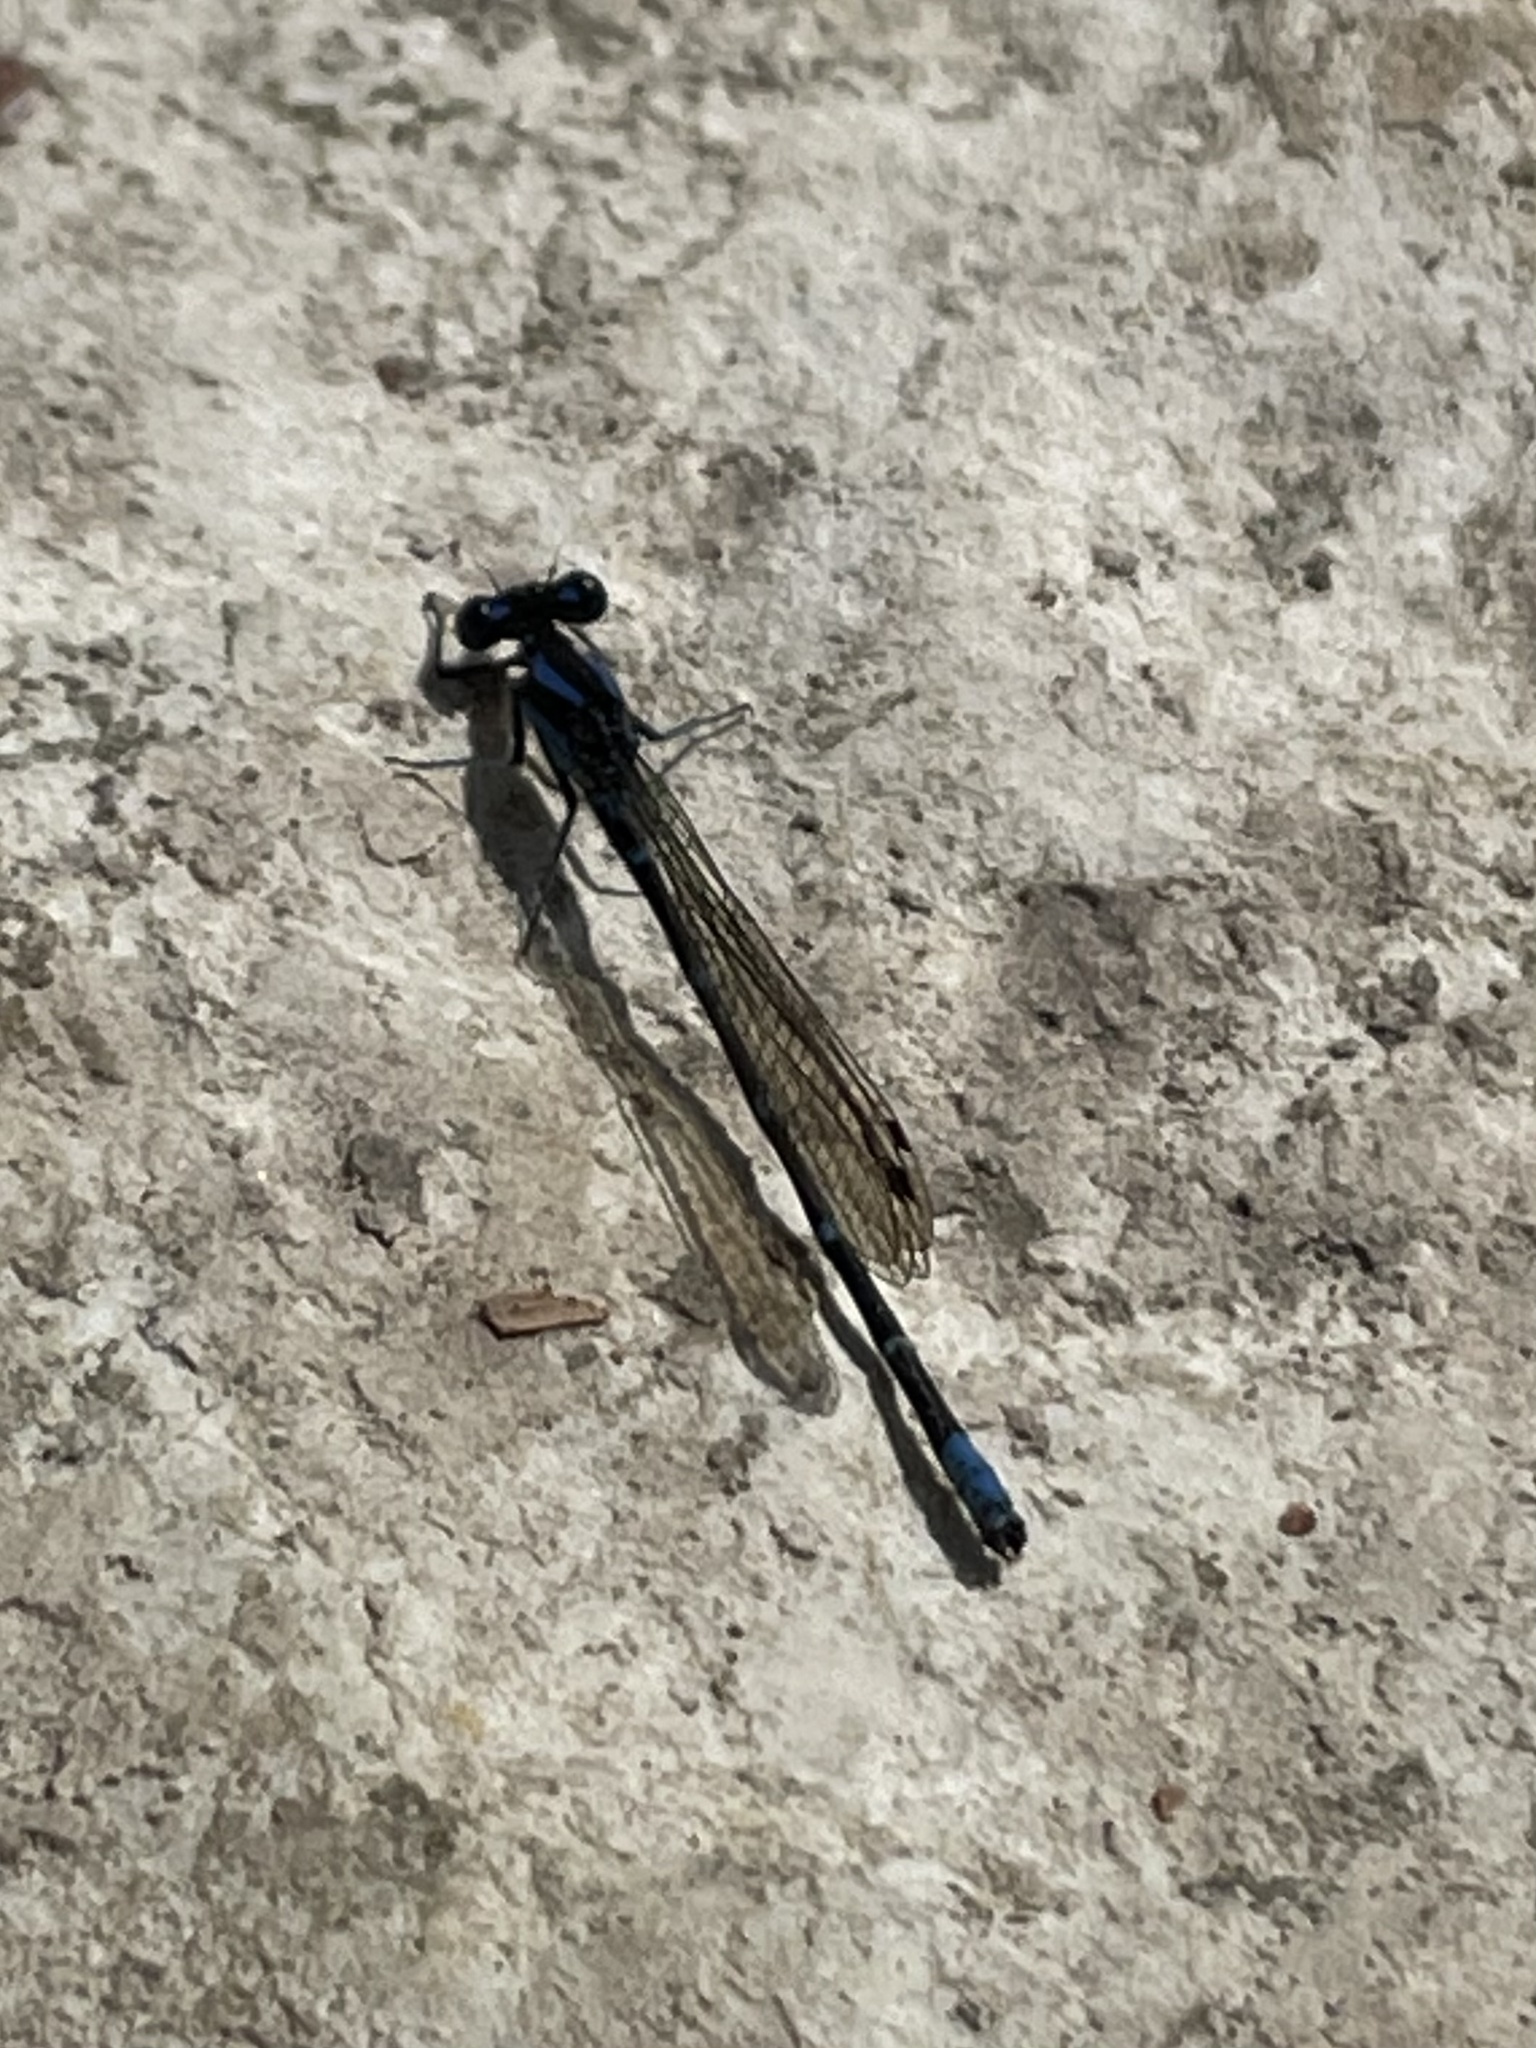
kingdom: Animalia
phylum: Arthropoda
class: Insecta
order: Odonata
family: Coenagrionidae
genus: Argia
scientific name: Argia sedula
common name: Blue-ringed dancer
